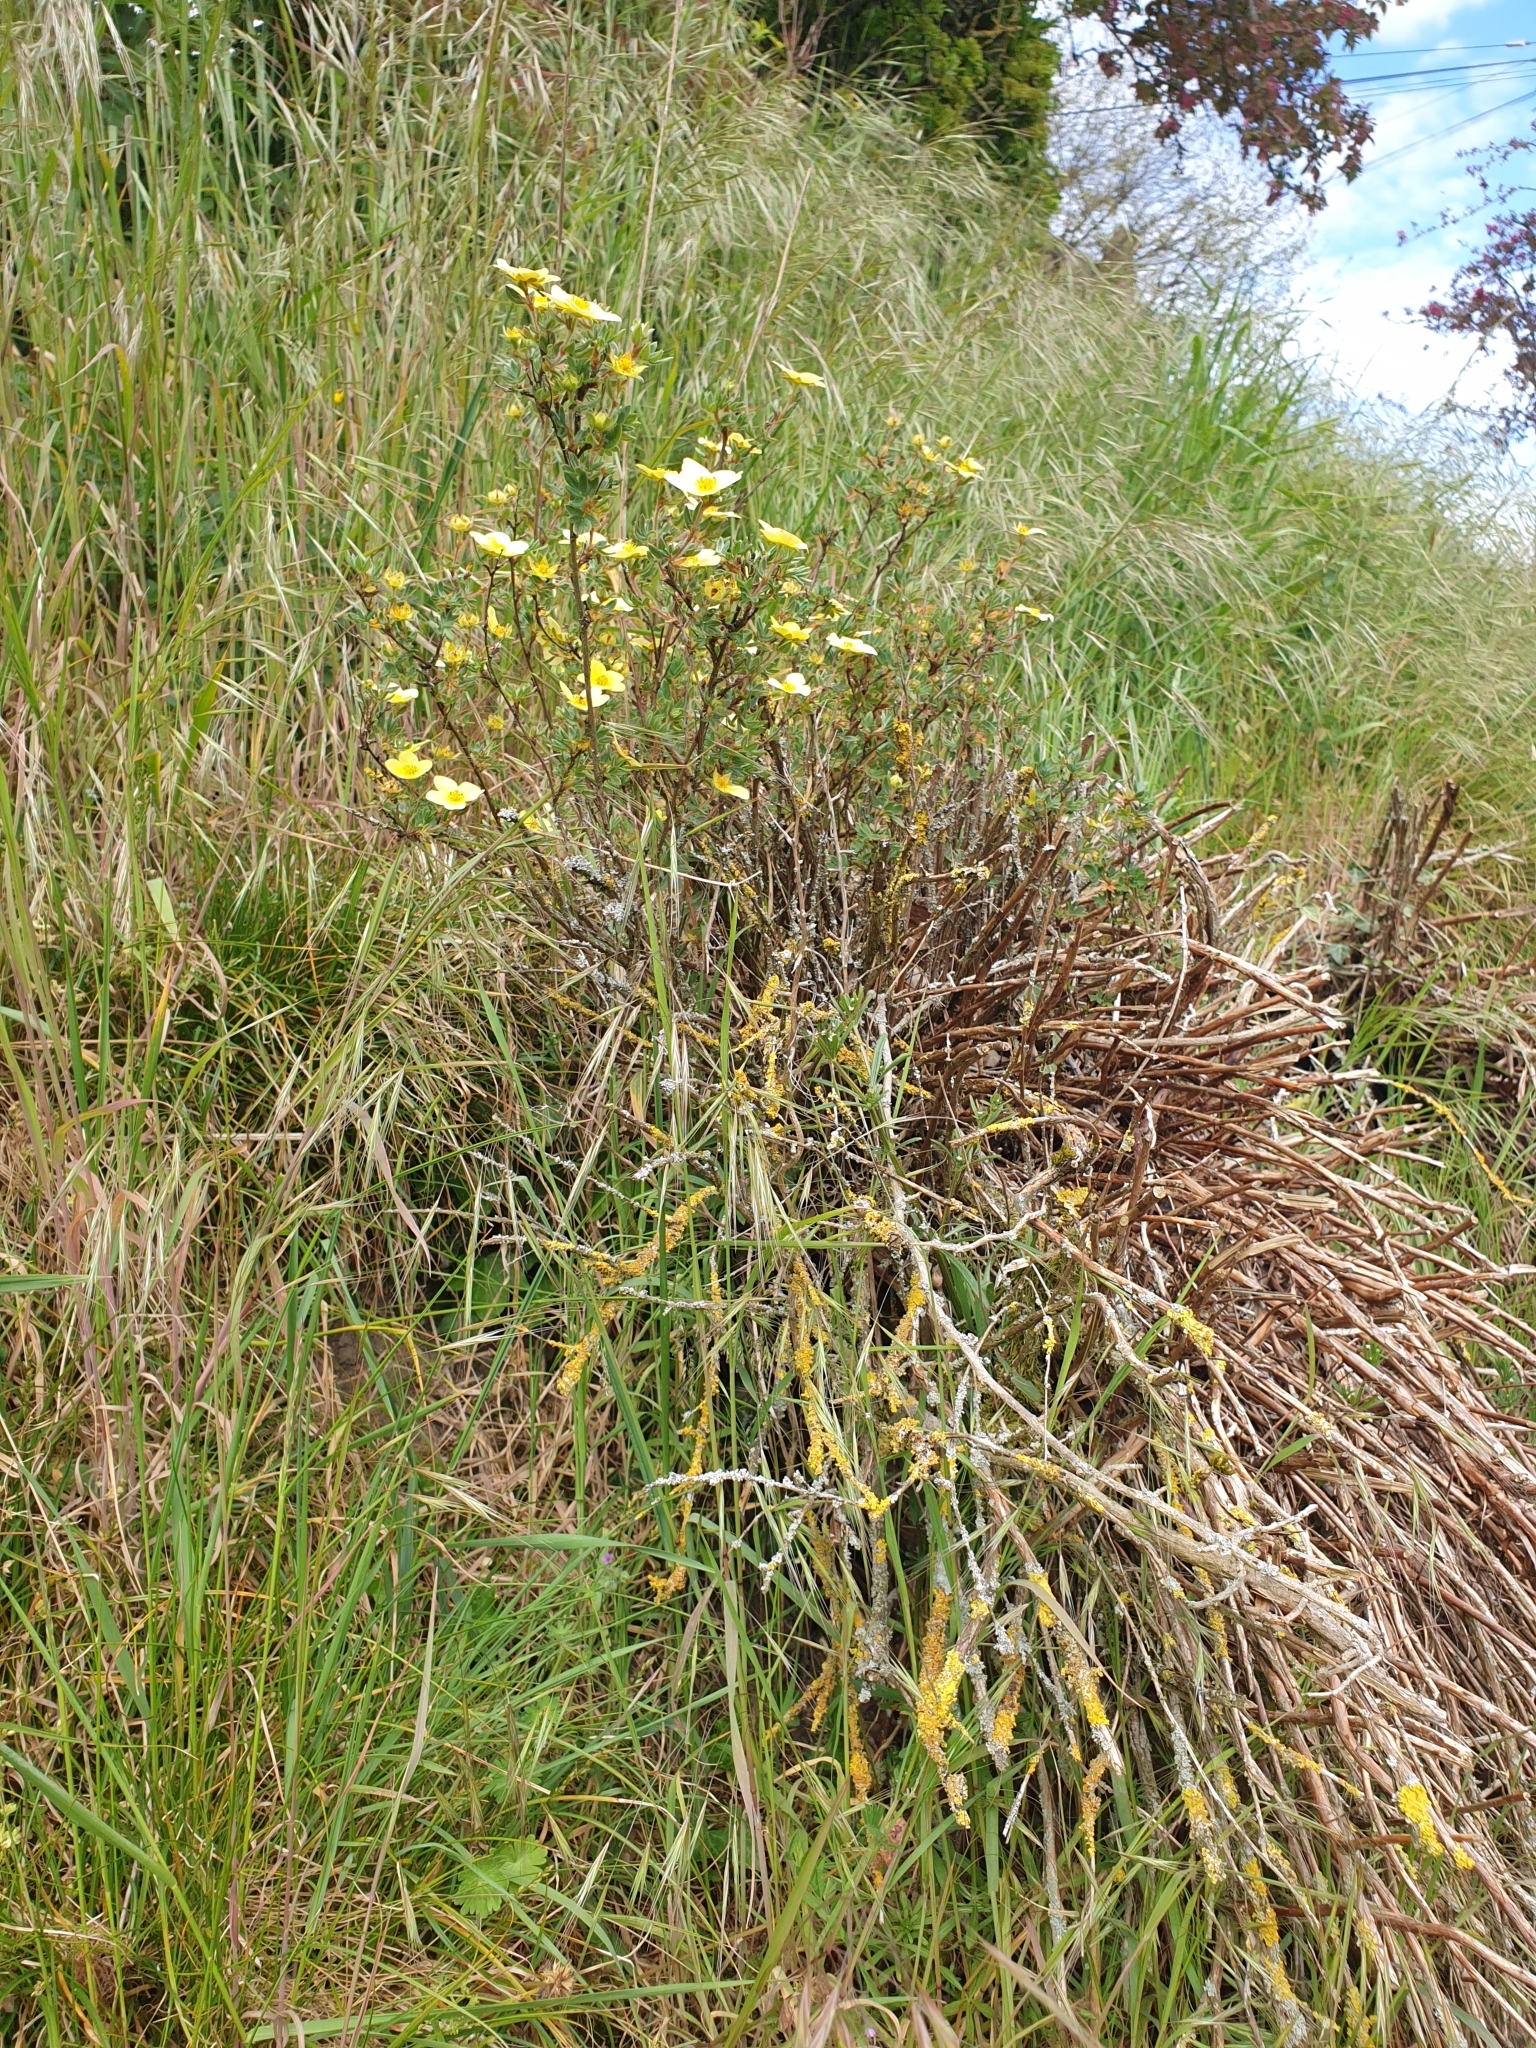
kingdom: Plantae
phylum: Tracheophyta
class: Magnoliopsida
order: Rosales
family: Rosaceae
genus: Dasiphora
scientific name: Dasiphora fruticosa
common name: Shrubby cinquefoil
